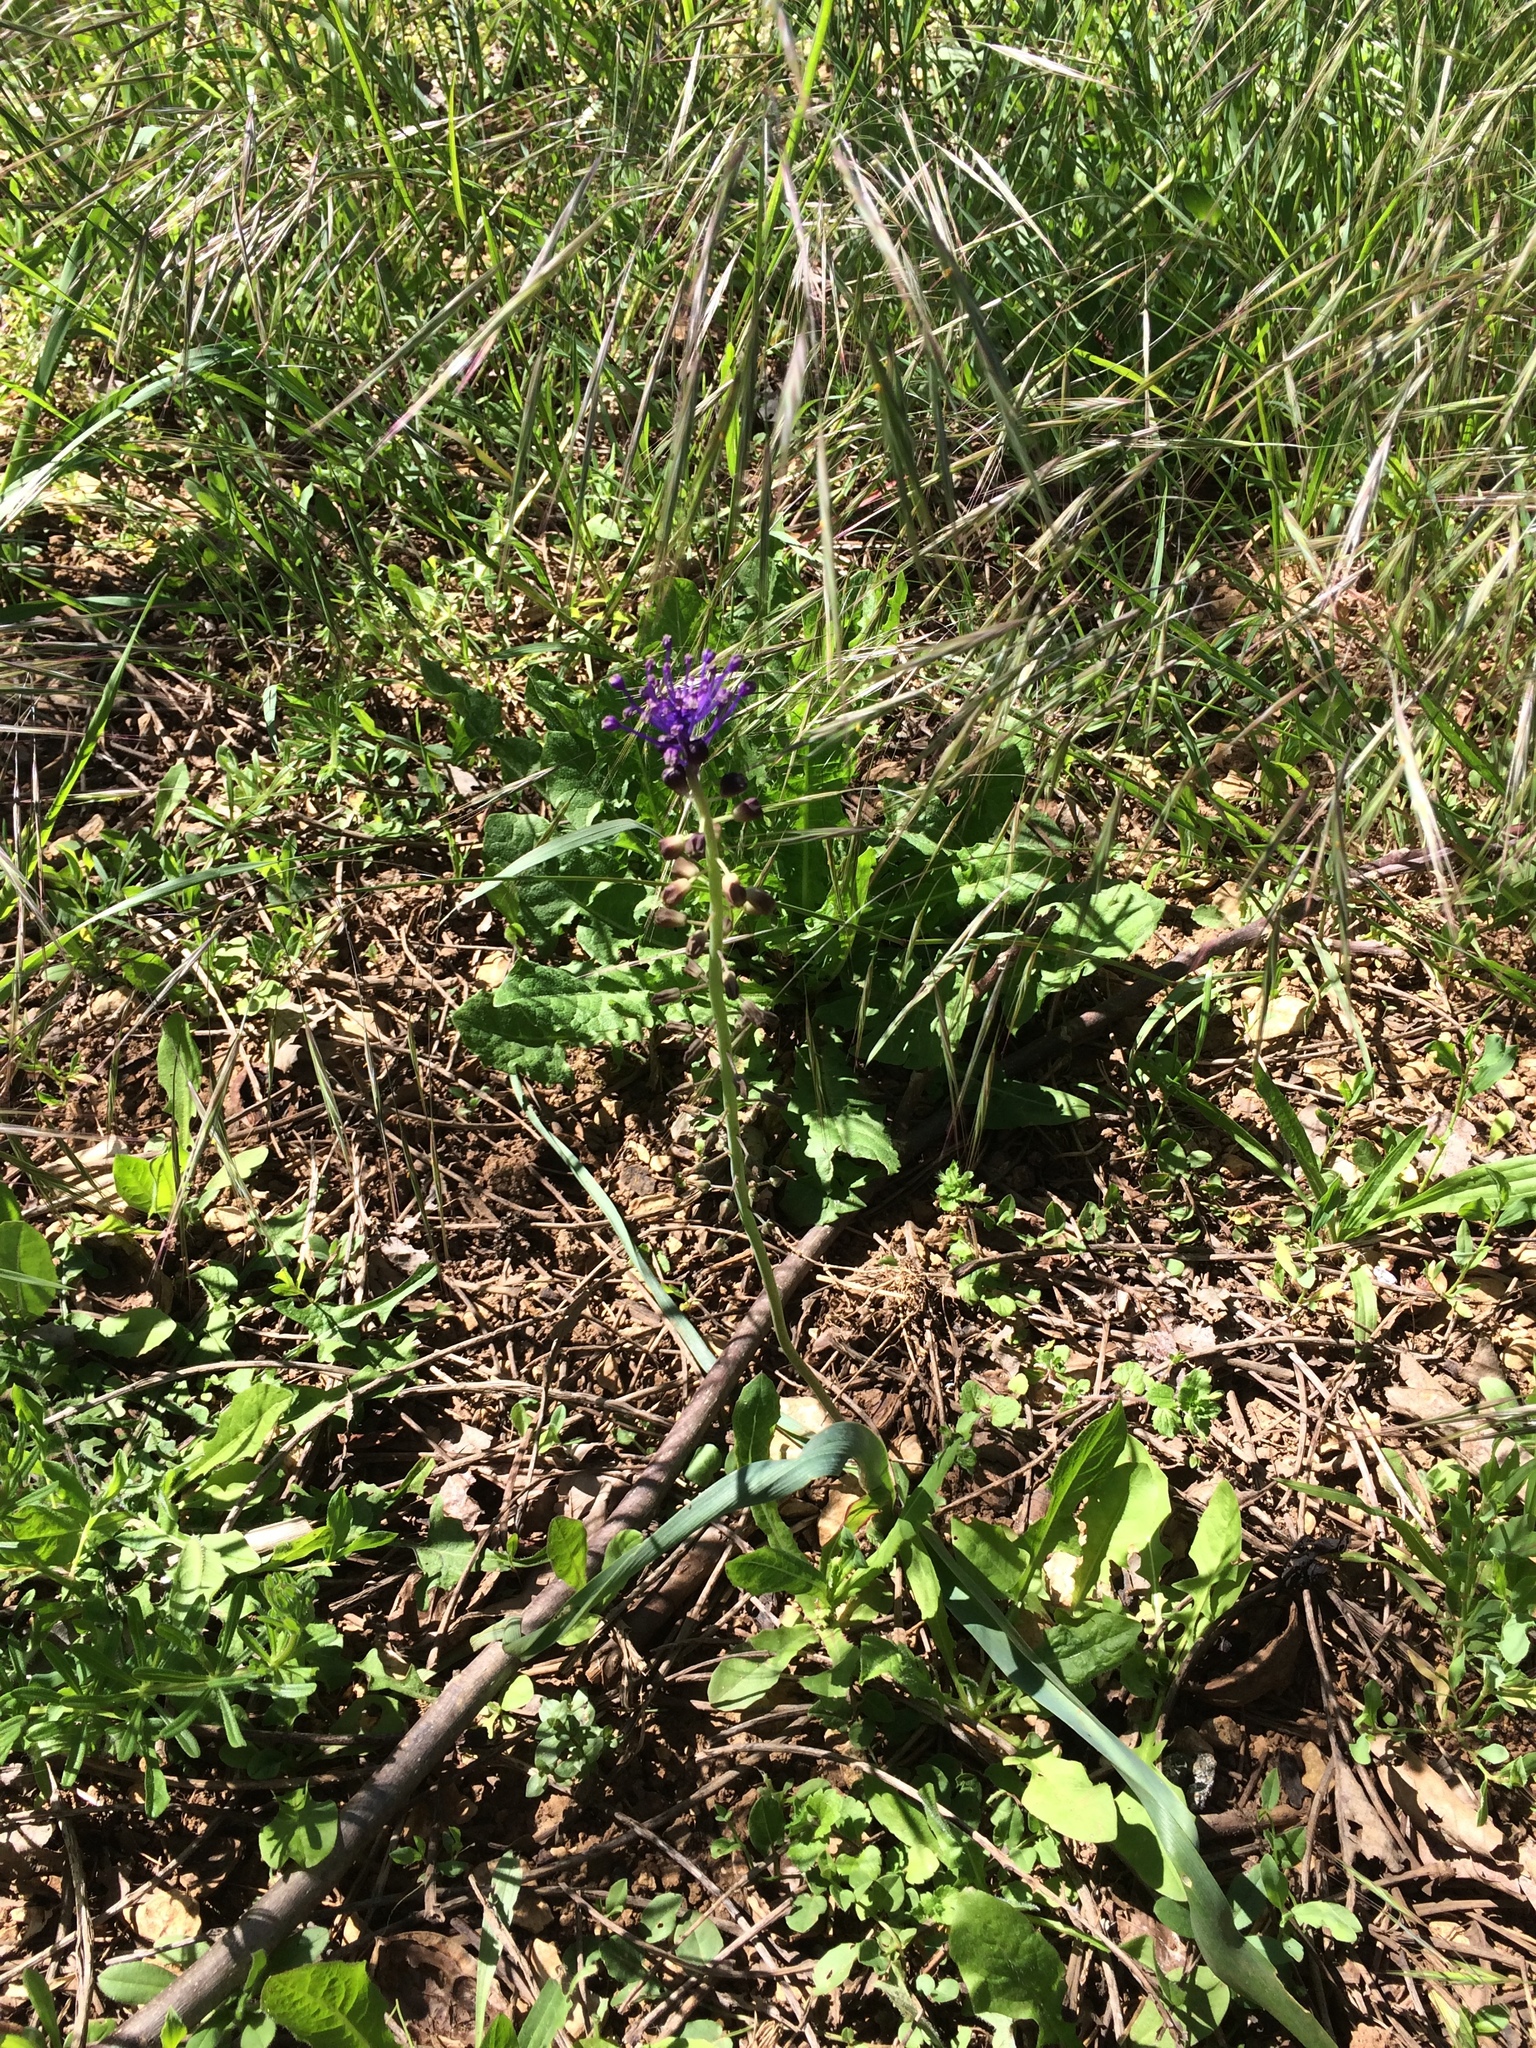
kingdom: Plantae
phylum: Tracheophyta
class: Liliopsida
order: Asparagales
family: Asparagaceae
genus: Muscari
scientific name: Muscari comosum
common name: Tassel hyacinth
